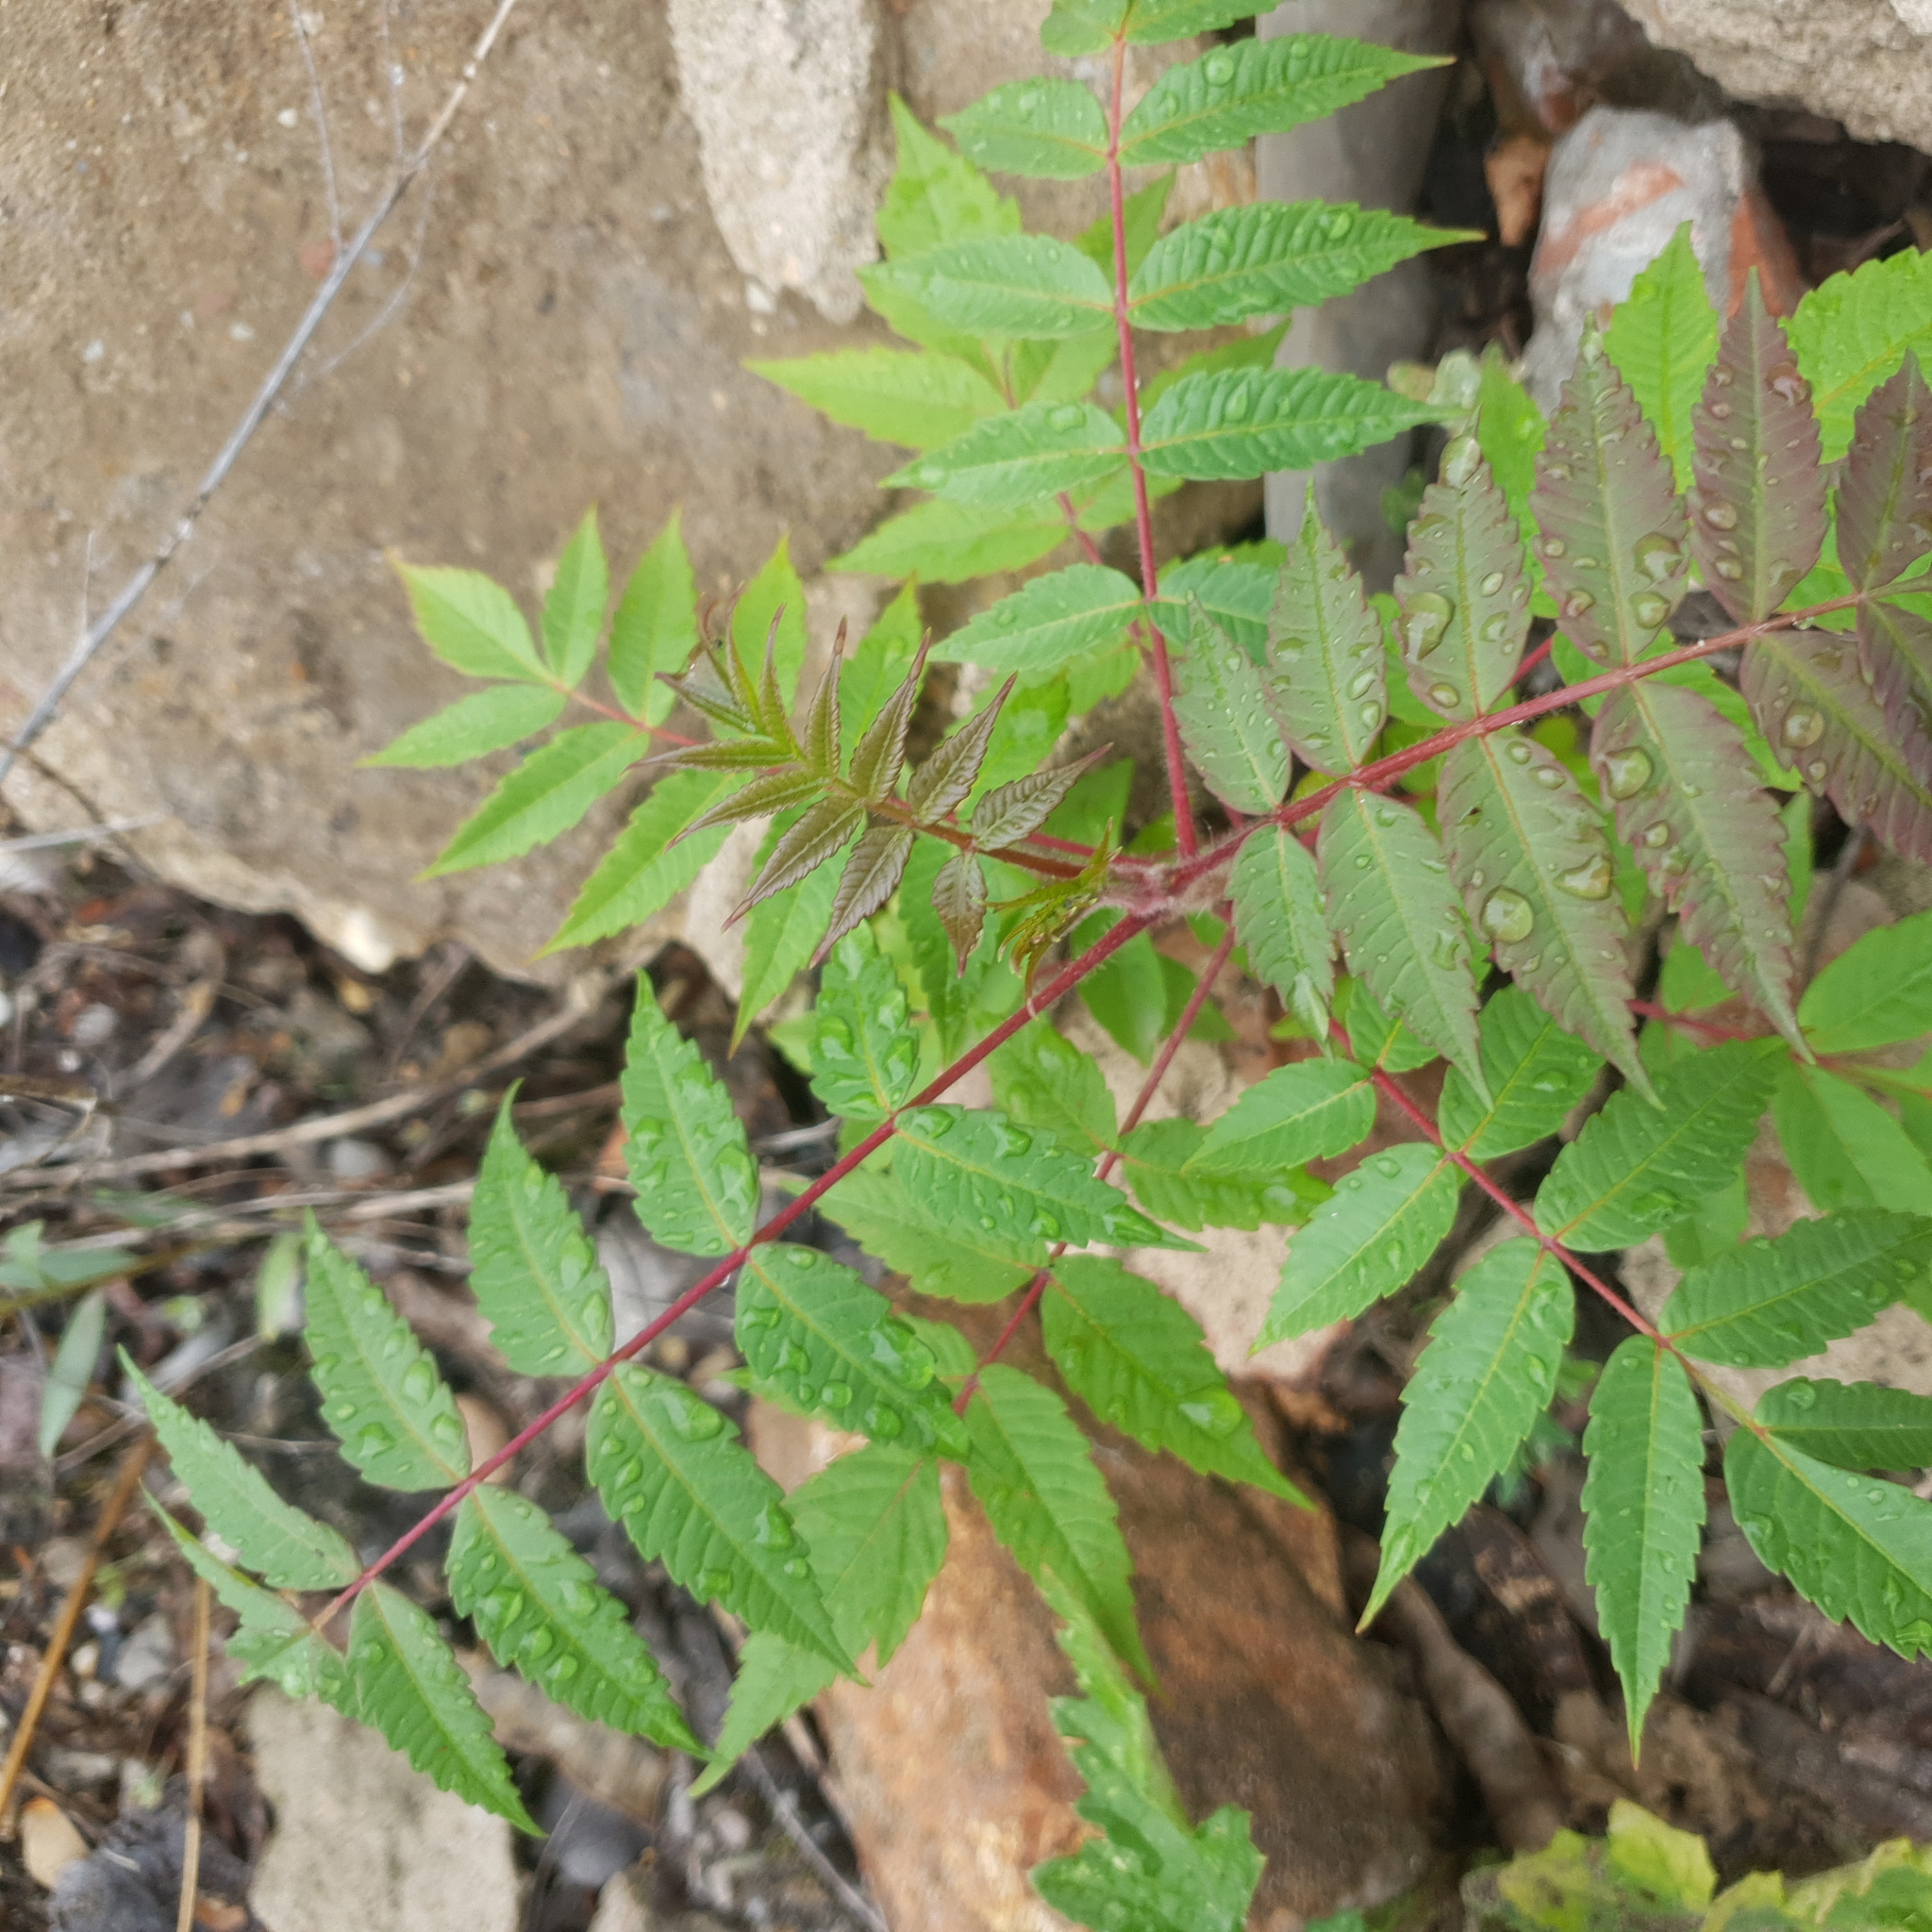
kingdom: Plantae
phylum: Tracheophyta
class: Magnoliopsida
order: Sapindales
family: Anacardiaceae
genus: Rhus
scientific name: Rhus typhina
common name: Staghorn sumac
